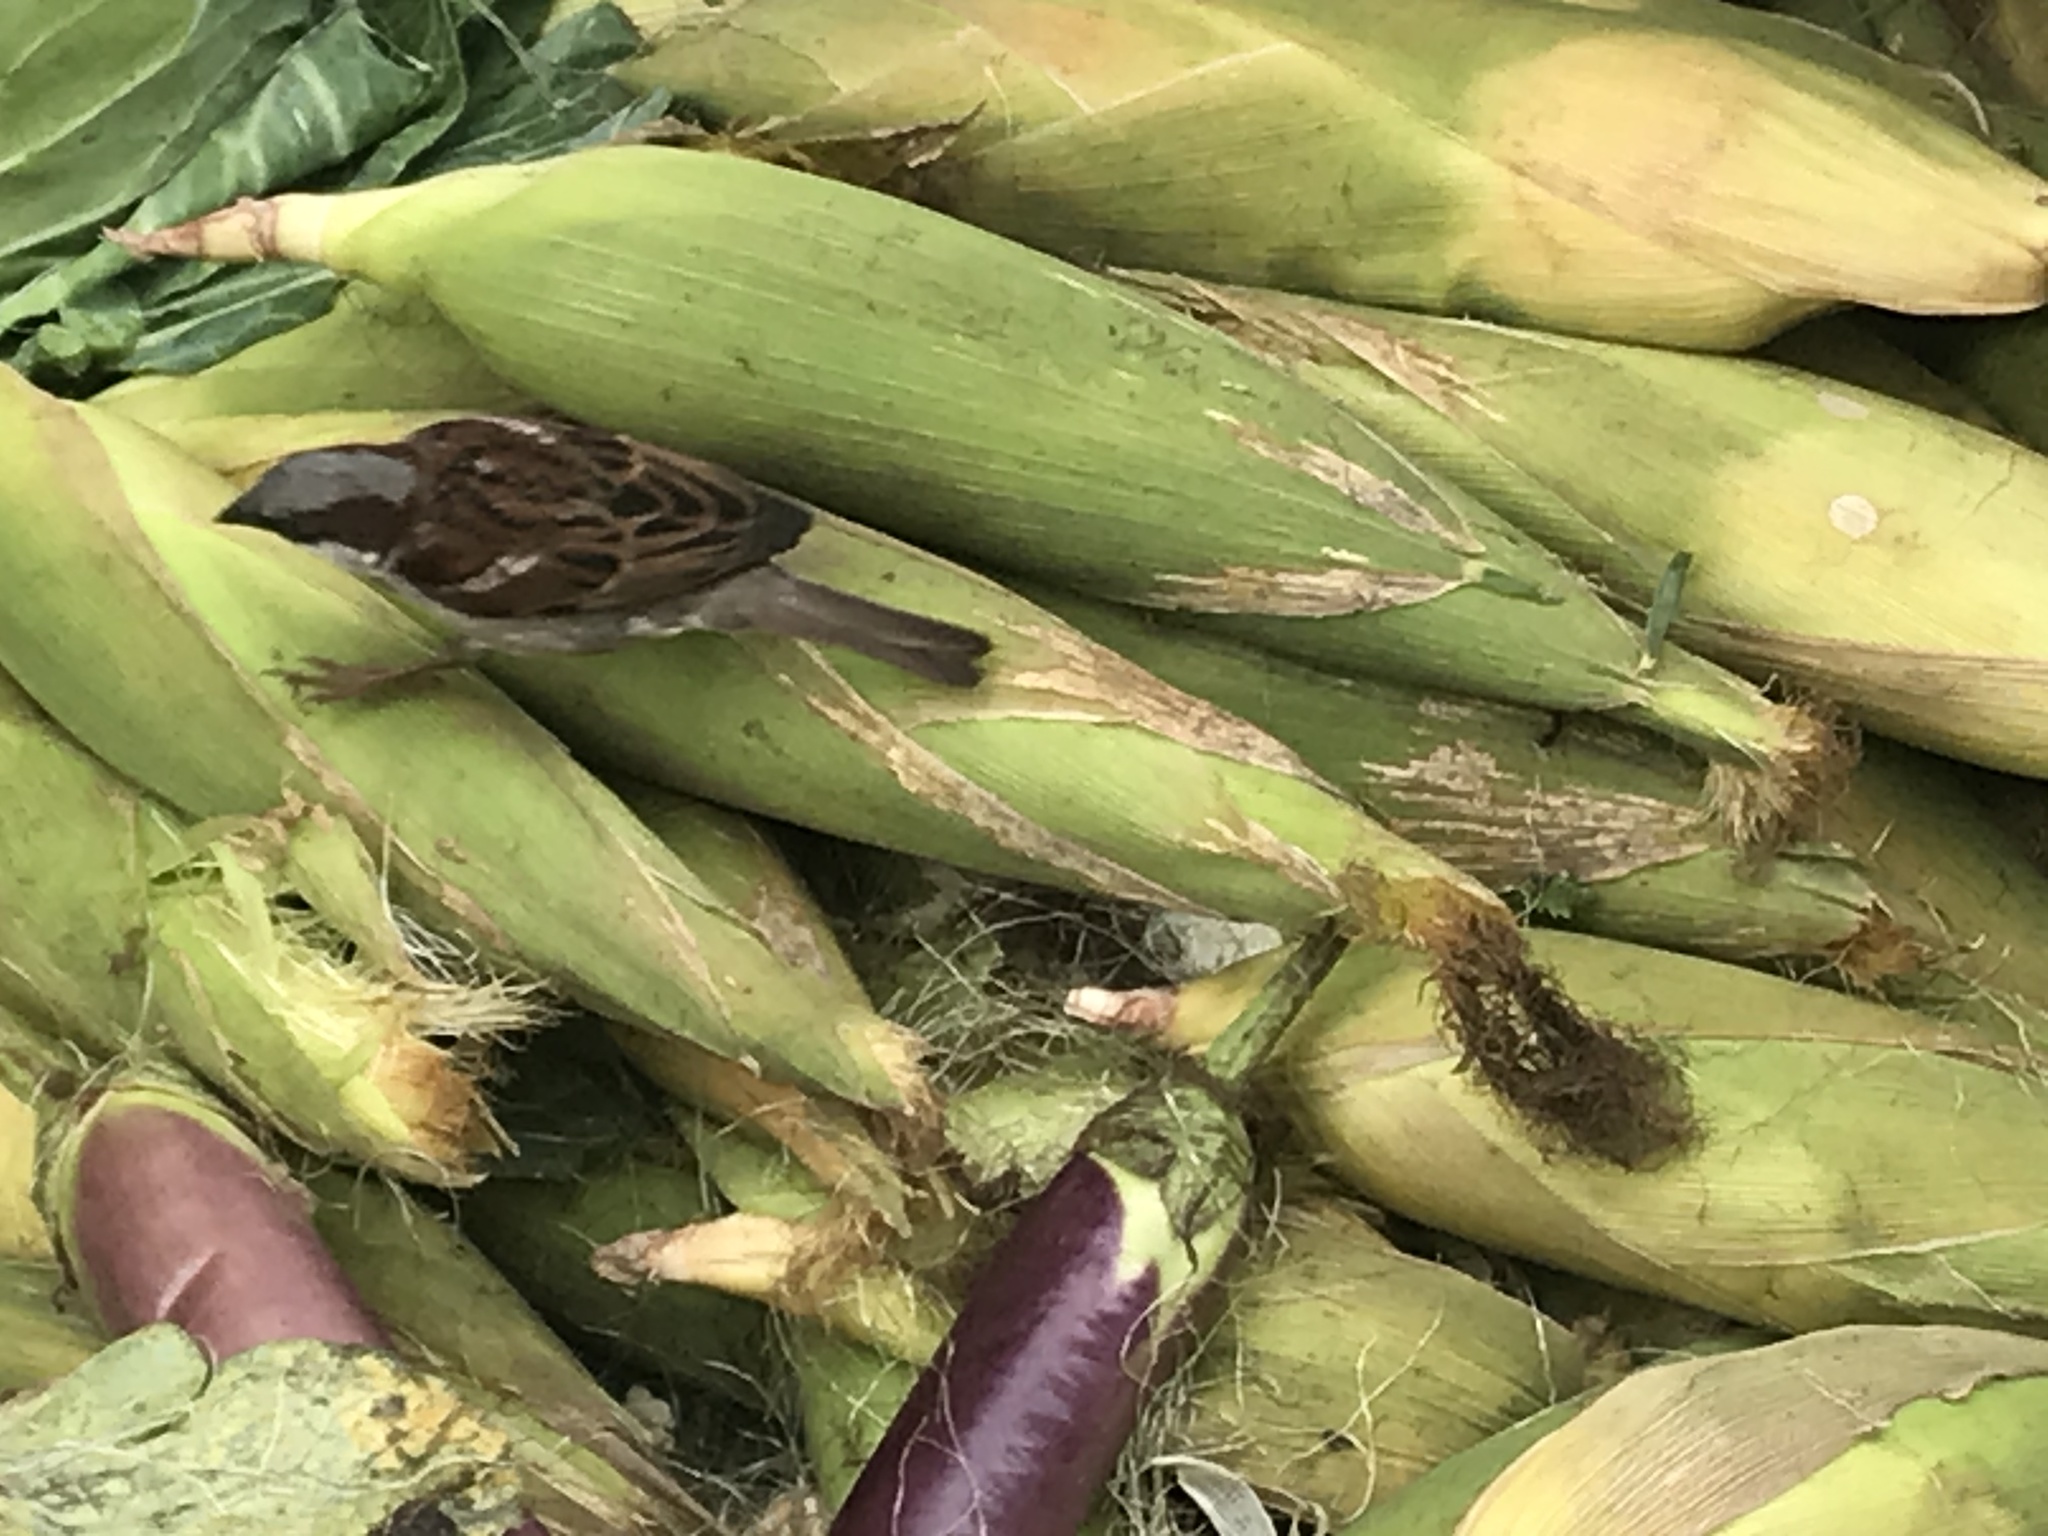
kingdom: Animalia
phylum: Chordata
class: Aves
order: Passeriformes
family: Passeridae
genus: Passer
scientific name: Passer domesticus
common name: House sparrow
